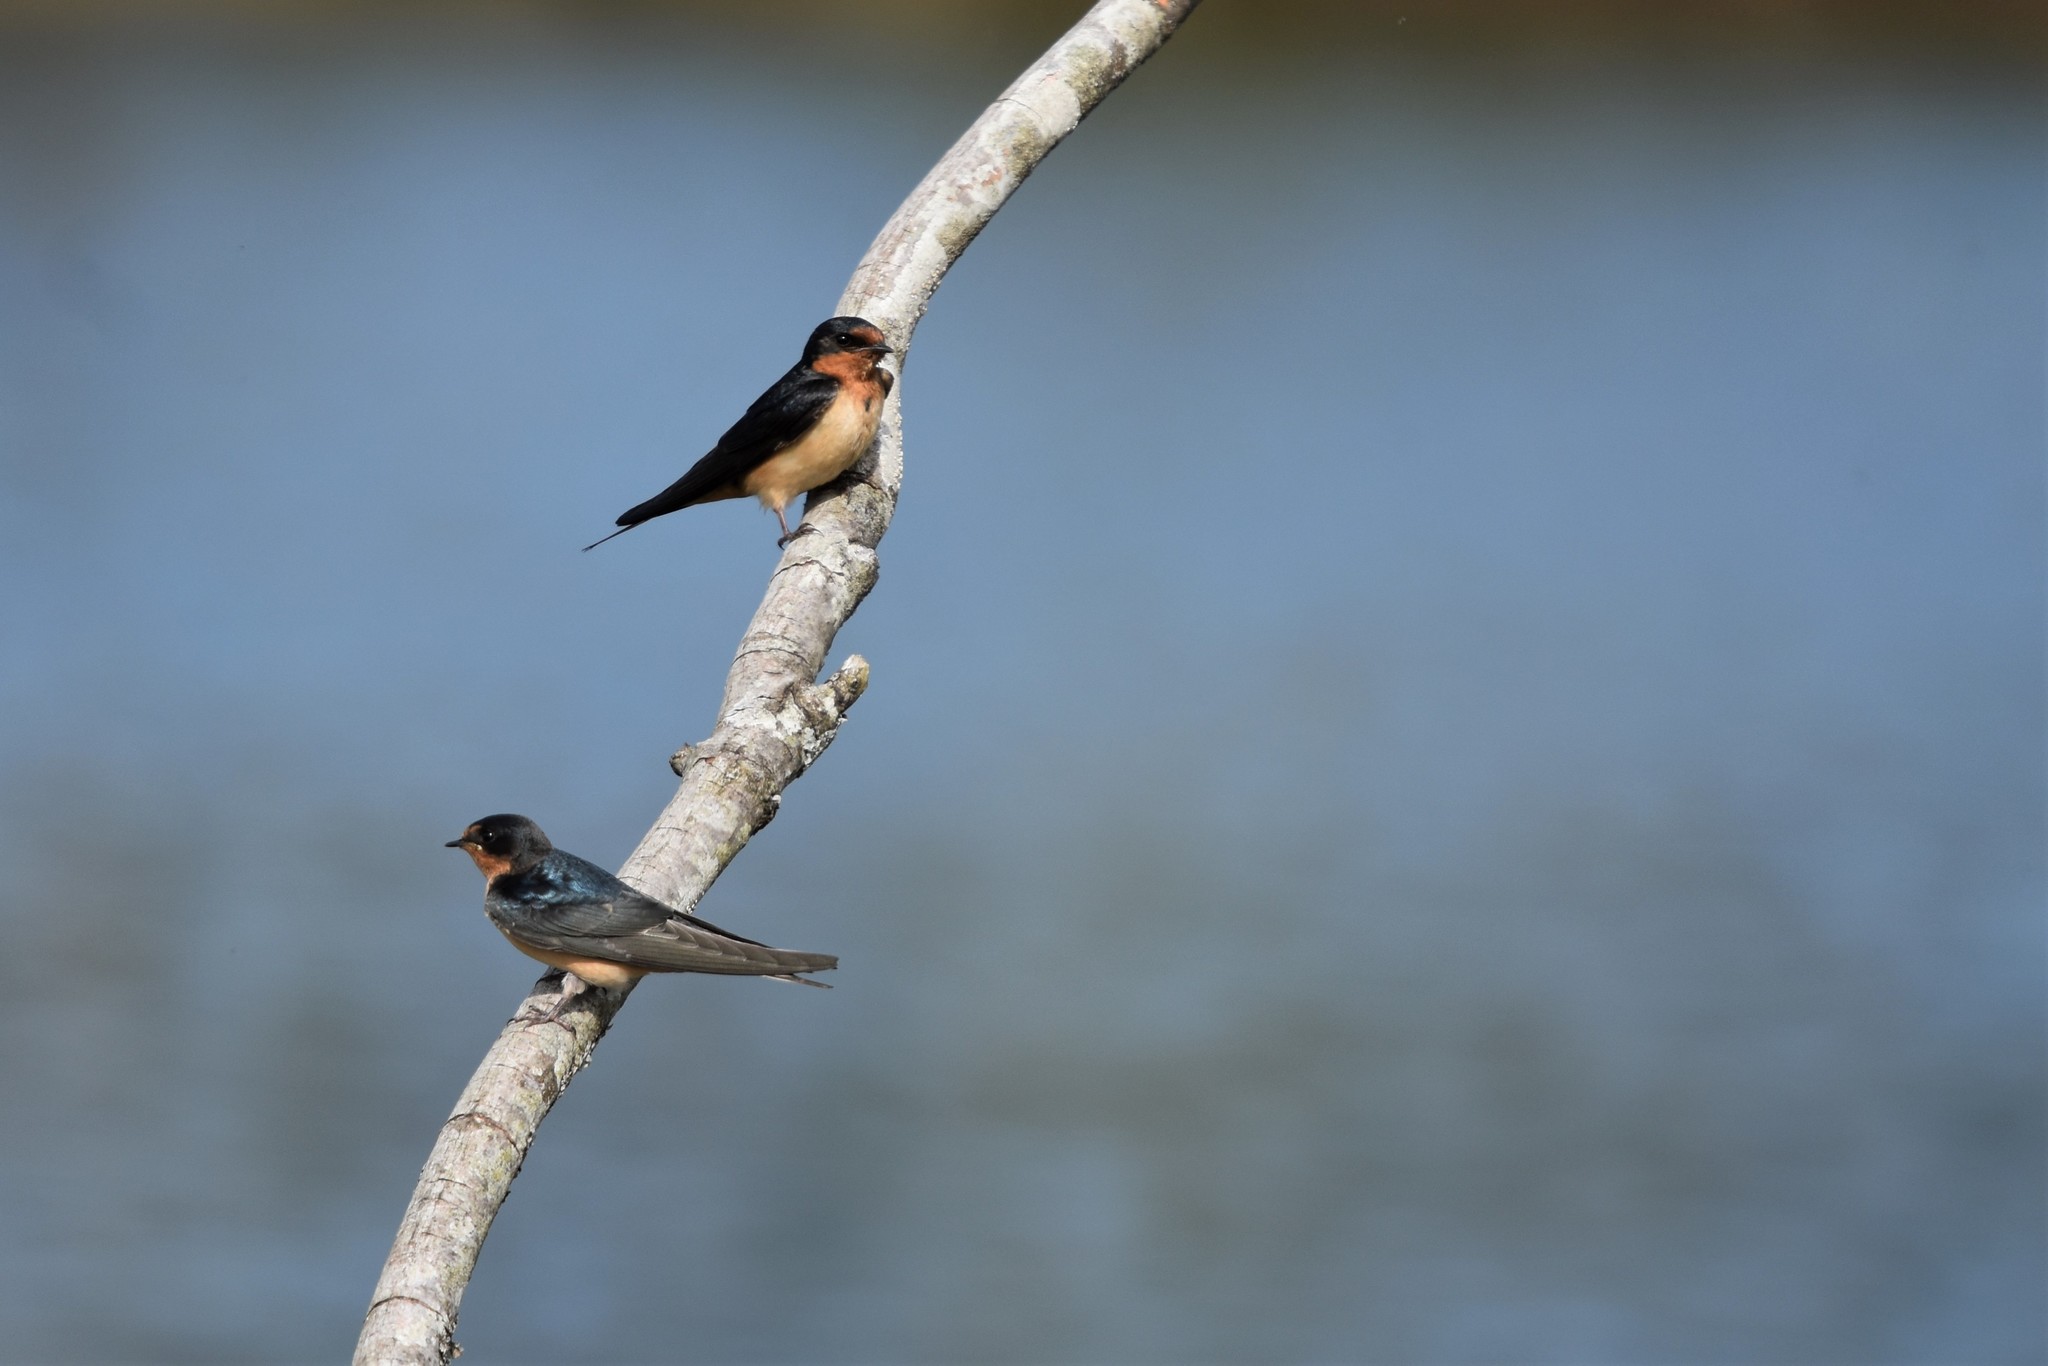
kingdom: Animalia
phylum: Chordata
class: Aves
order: Passeriformes
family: Hirundinidae
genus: Hirundo
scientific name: Hirundo rustica
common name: Barn swallow
